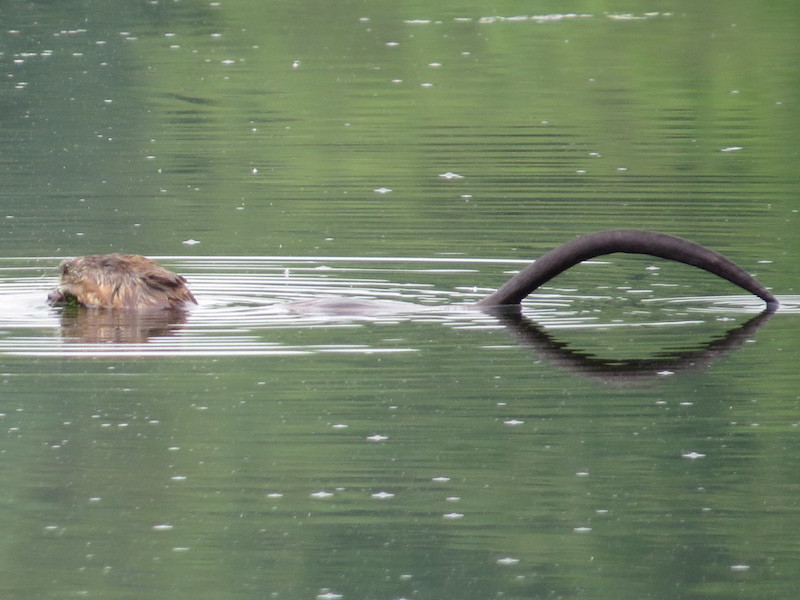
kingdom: Animalia
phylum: Chordata
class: Mammalia
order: Rodentia
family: Cricetidae
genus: Ondatra
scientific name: Ondatra zibethicus
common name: Muskrat
